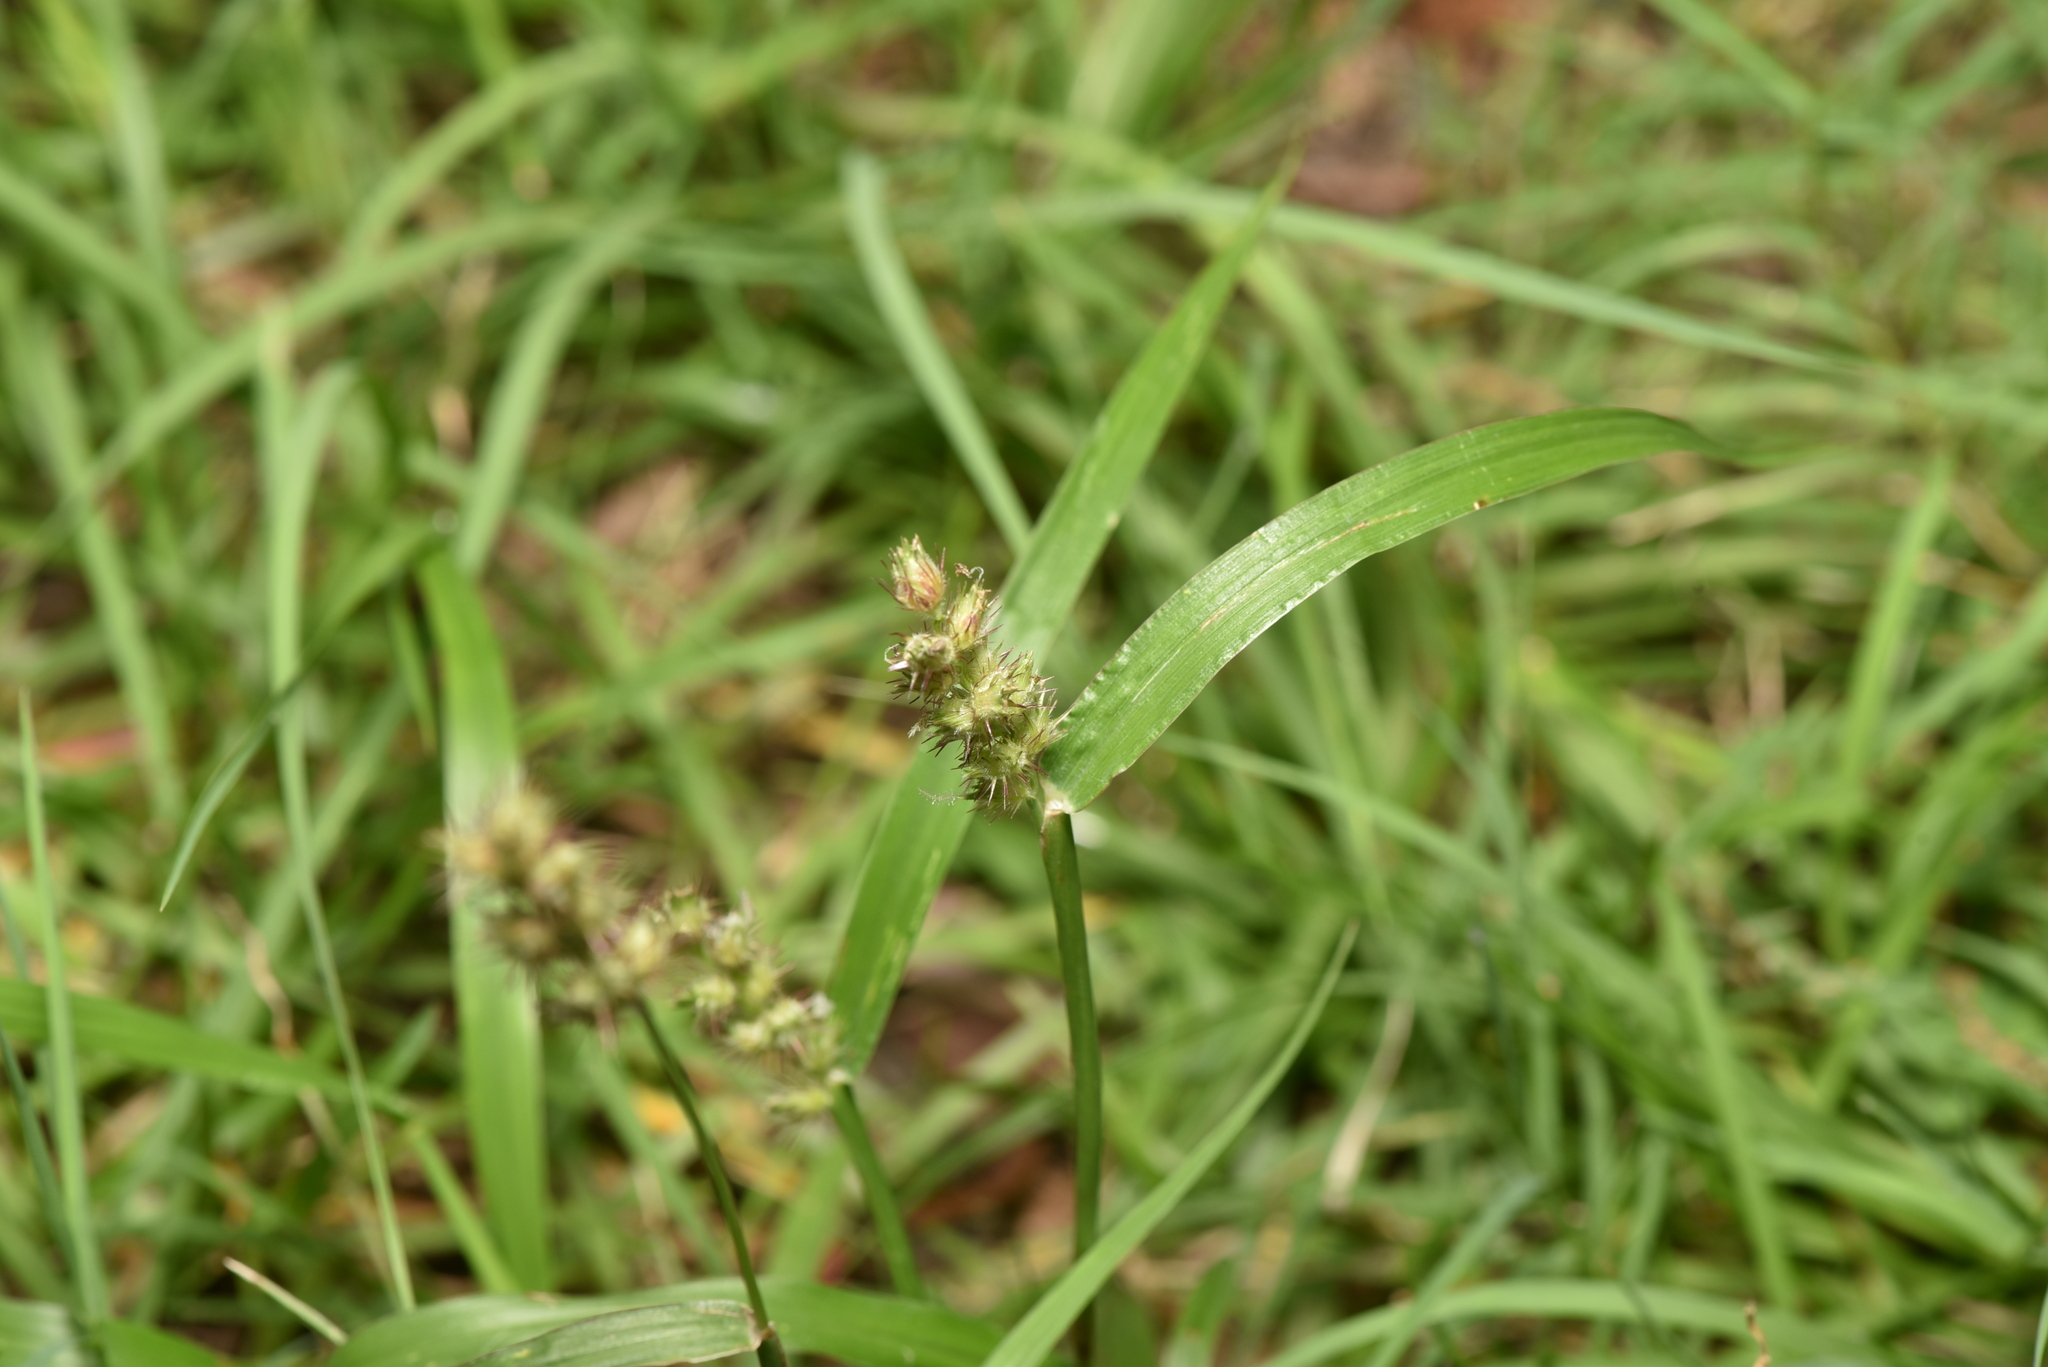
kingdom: Plantae
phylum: Tracheophyta
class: Liliopsida
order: Poales
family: Poaceae
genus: Cenchrus
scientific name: Cenchrus echinatus
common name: Southern sandbur
